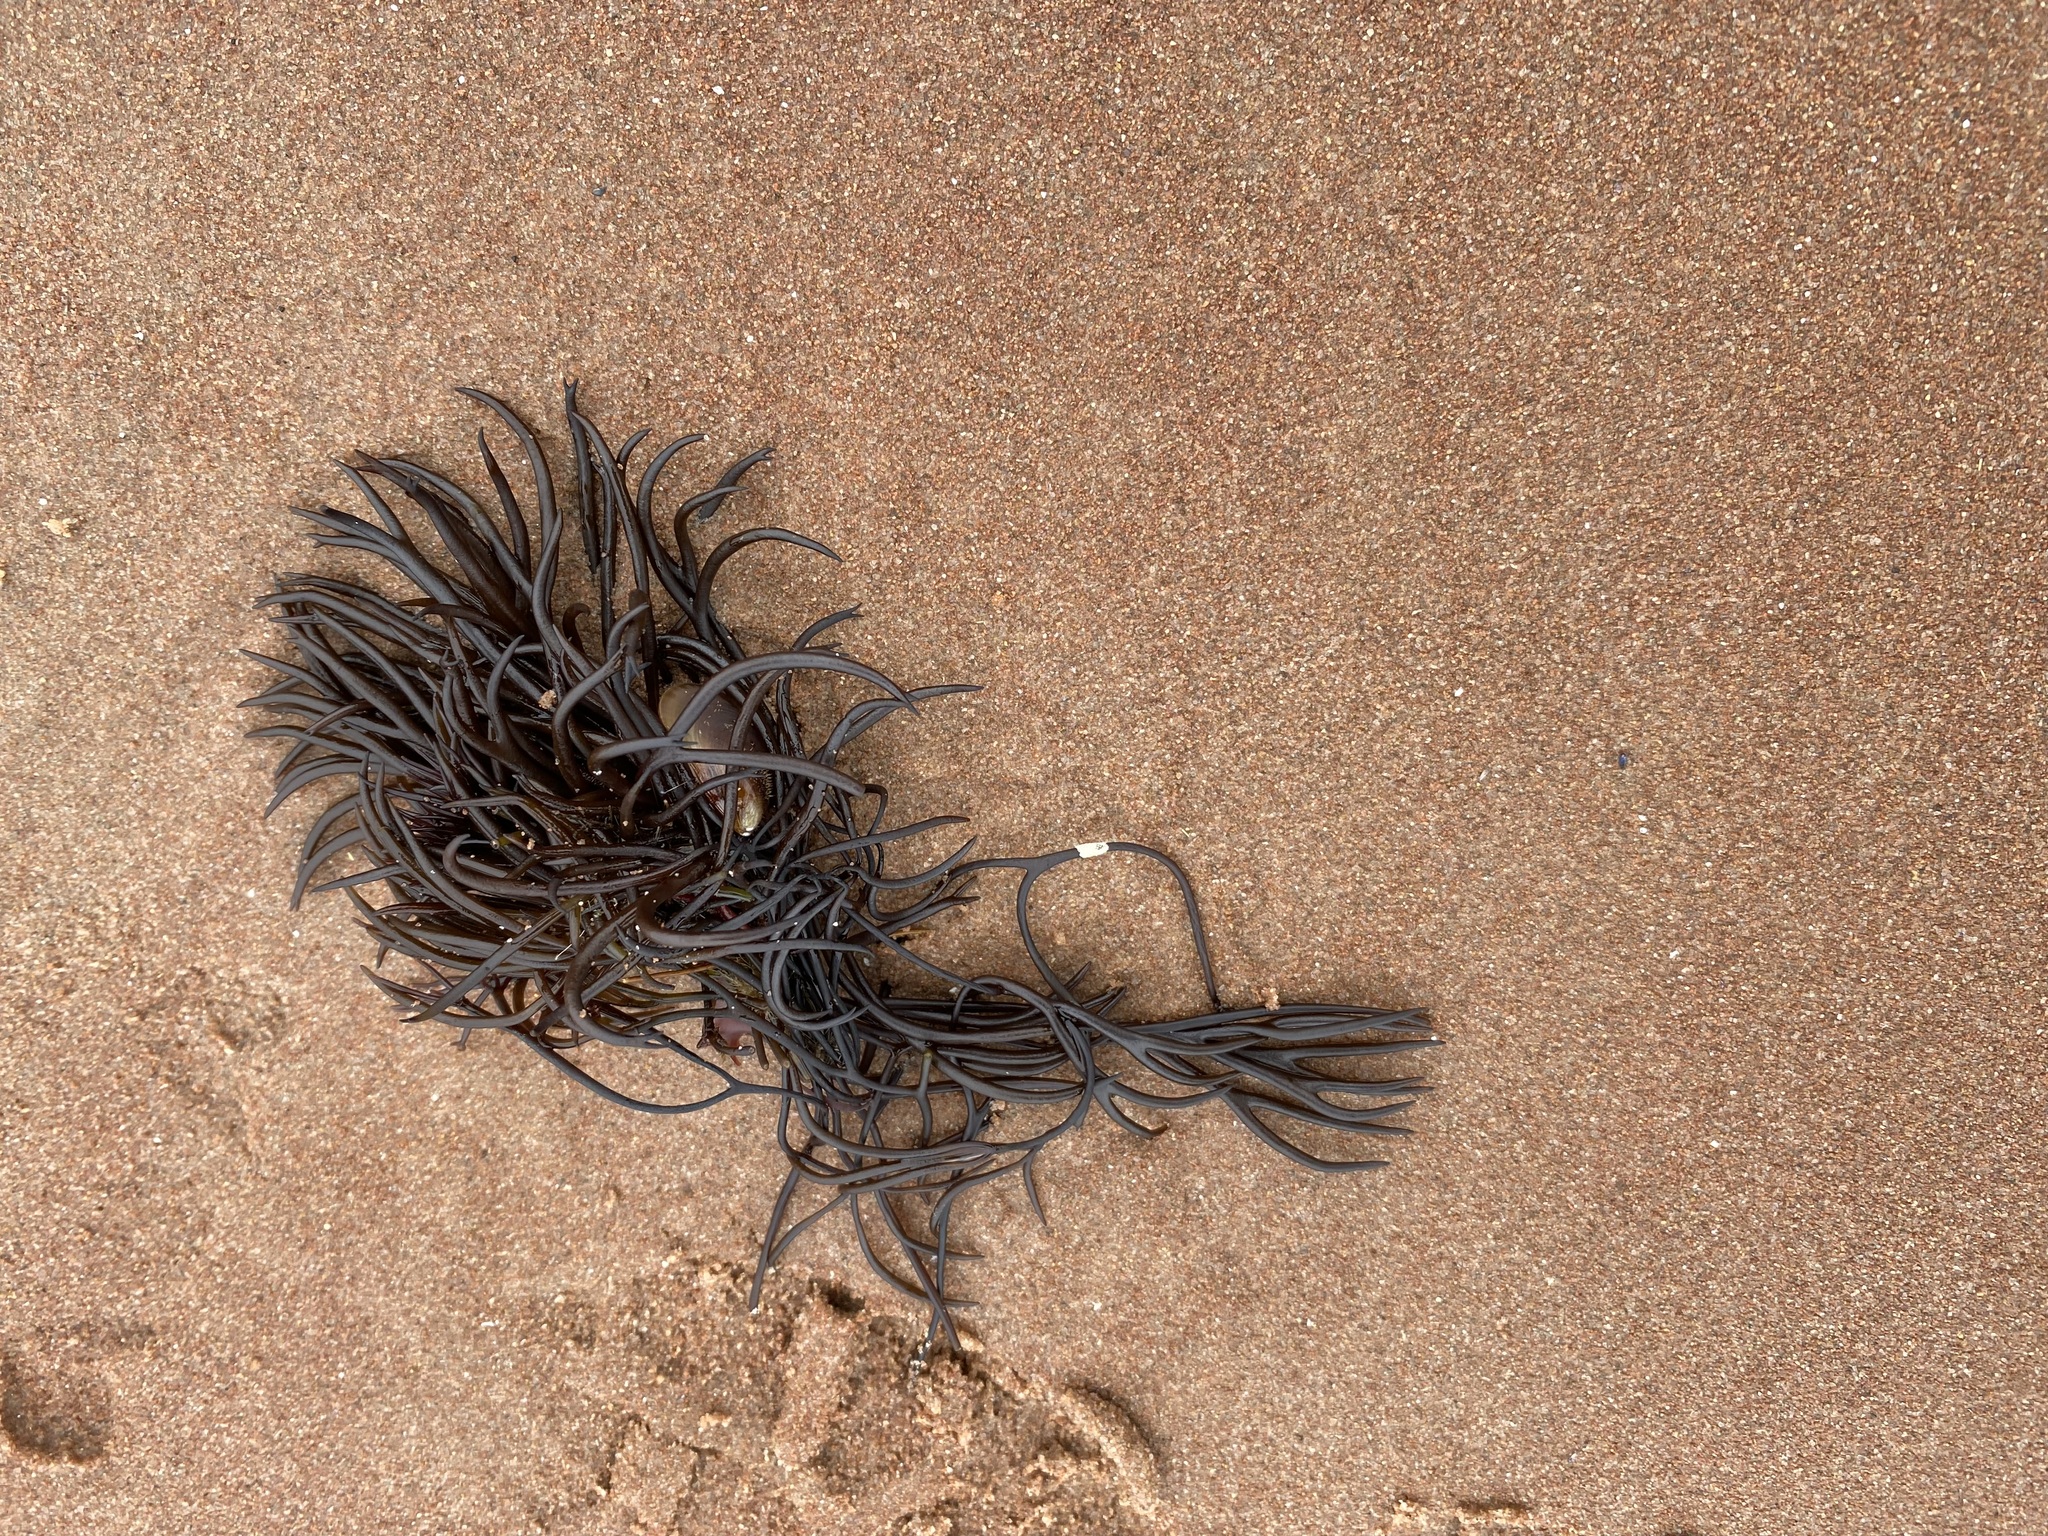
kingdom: Plantae
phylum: Rhodophyta
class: Florideophyceae
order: Gigartinales
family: Furcellariaceae
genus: Furcellaria
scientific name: Furcellaria lumbricalis
